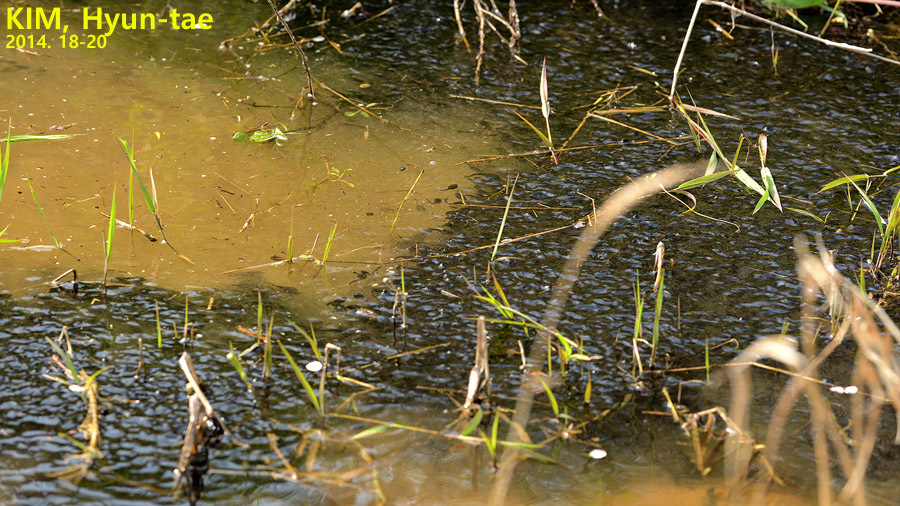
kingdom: Animalia
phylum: Chordata
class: Amphibia
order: Anura
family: Bufonidae
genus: Bufo
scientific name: Bufo gargarizans
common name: Asiatic toad
